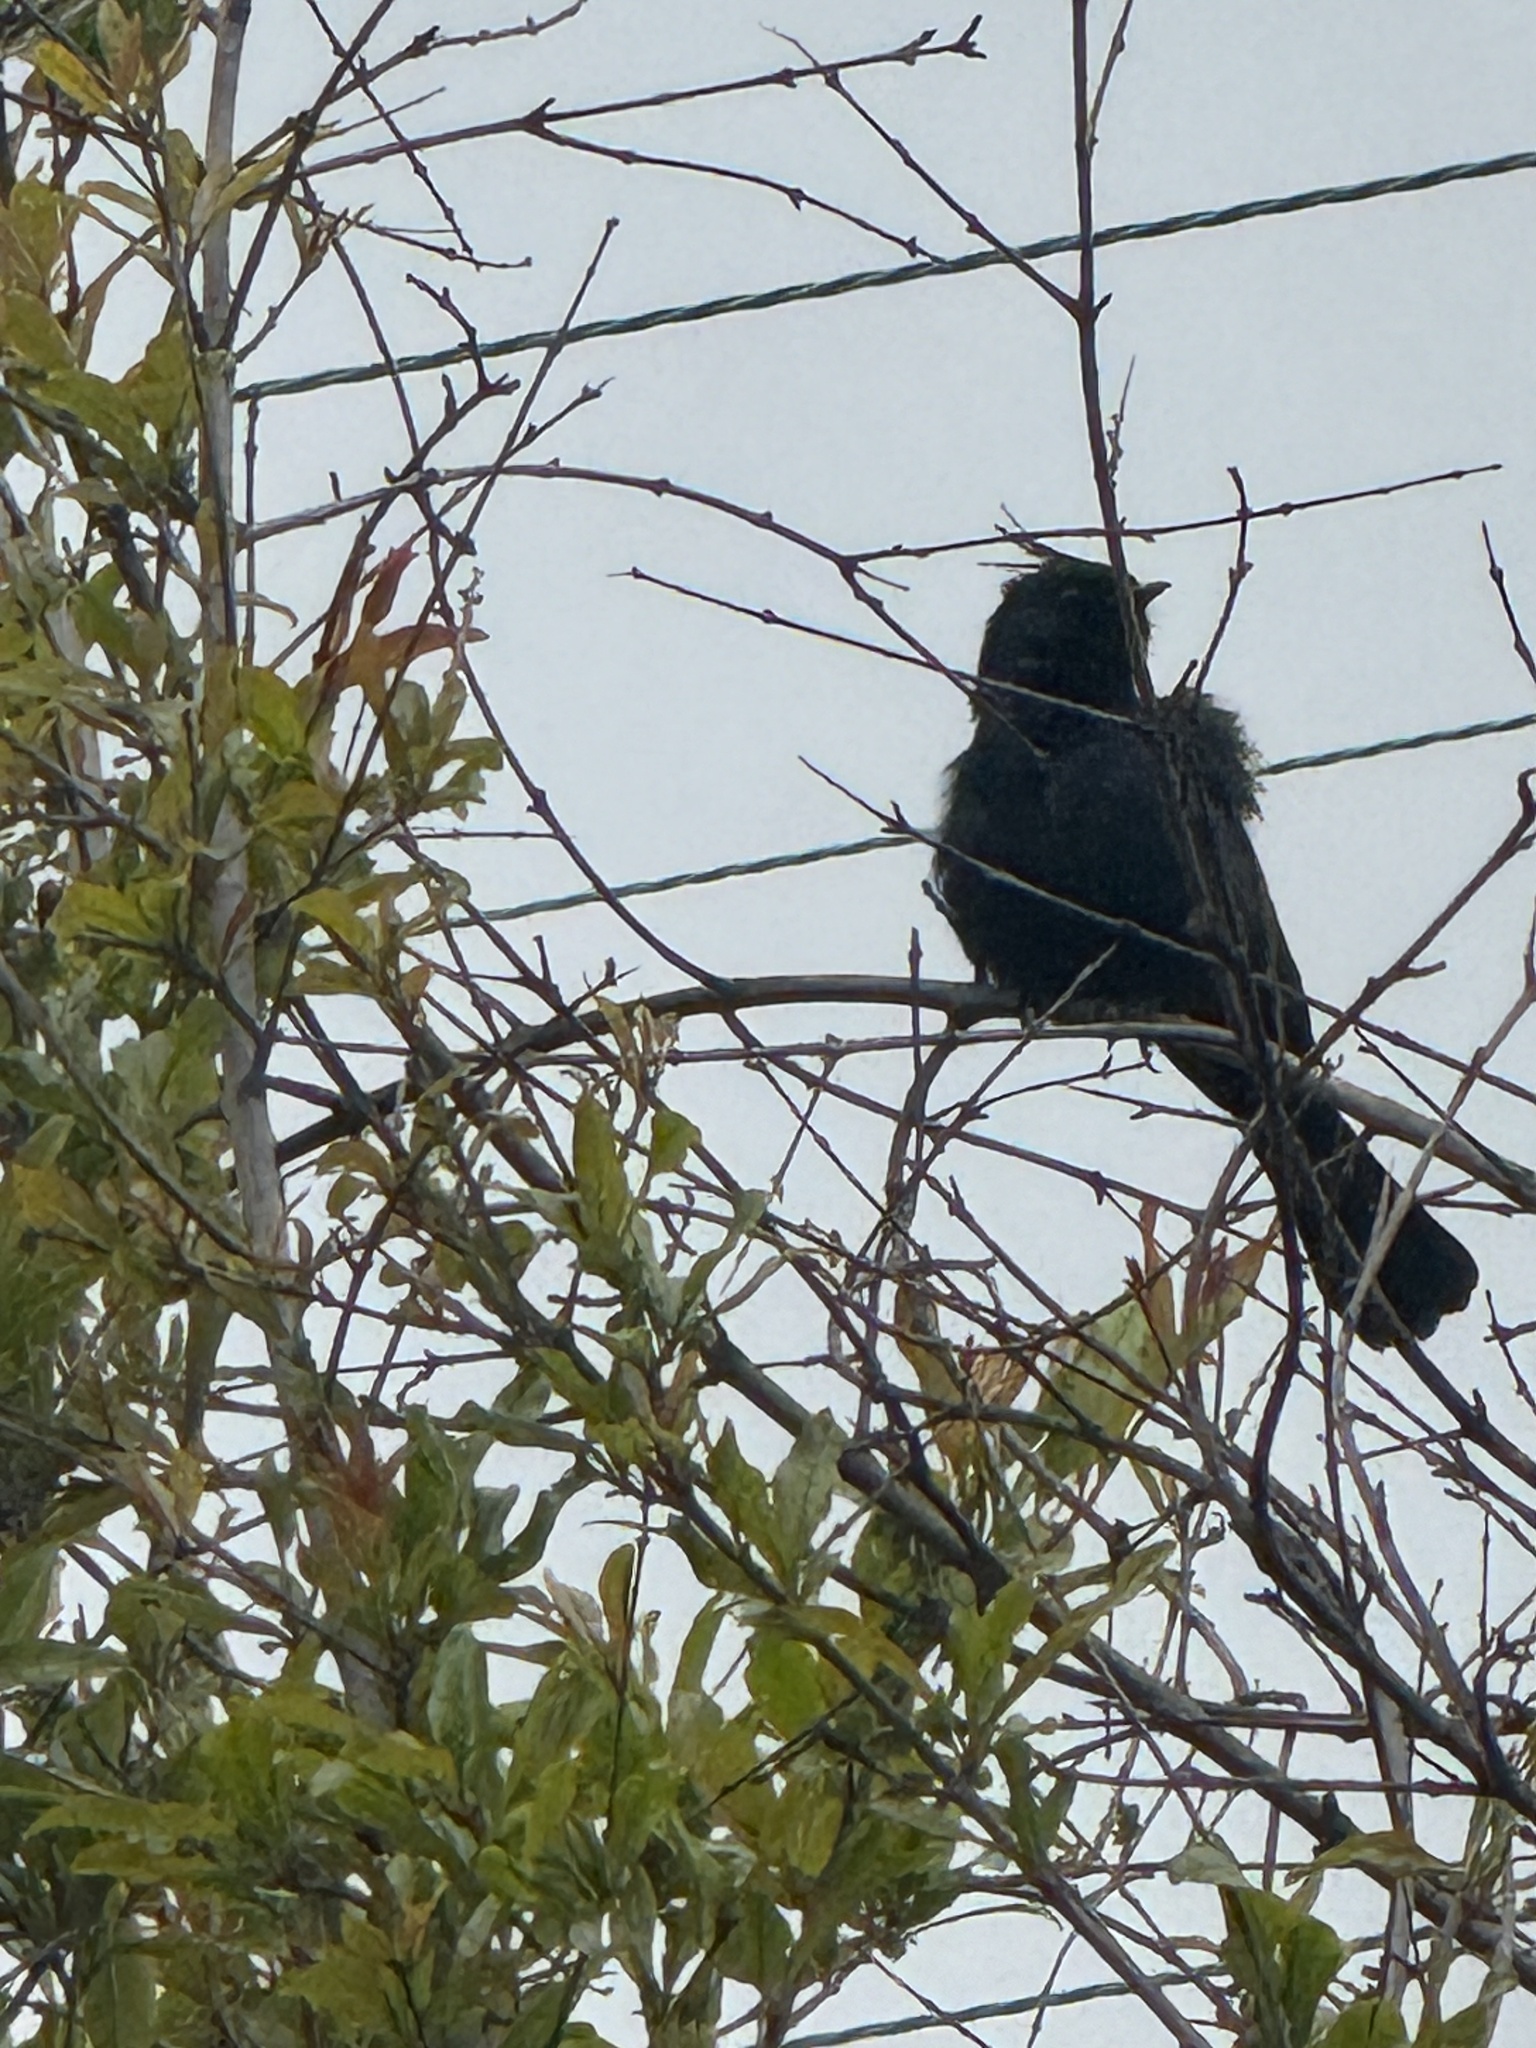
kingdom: Animalia
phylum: Chordata
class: Aves
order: Passeriformes
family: Ptilogonatidae
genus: Phainopepla
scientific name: Phainopepla nitens
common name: Phainopepla
